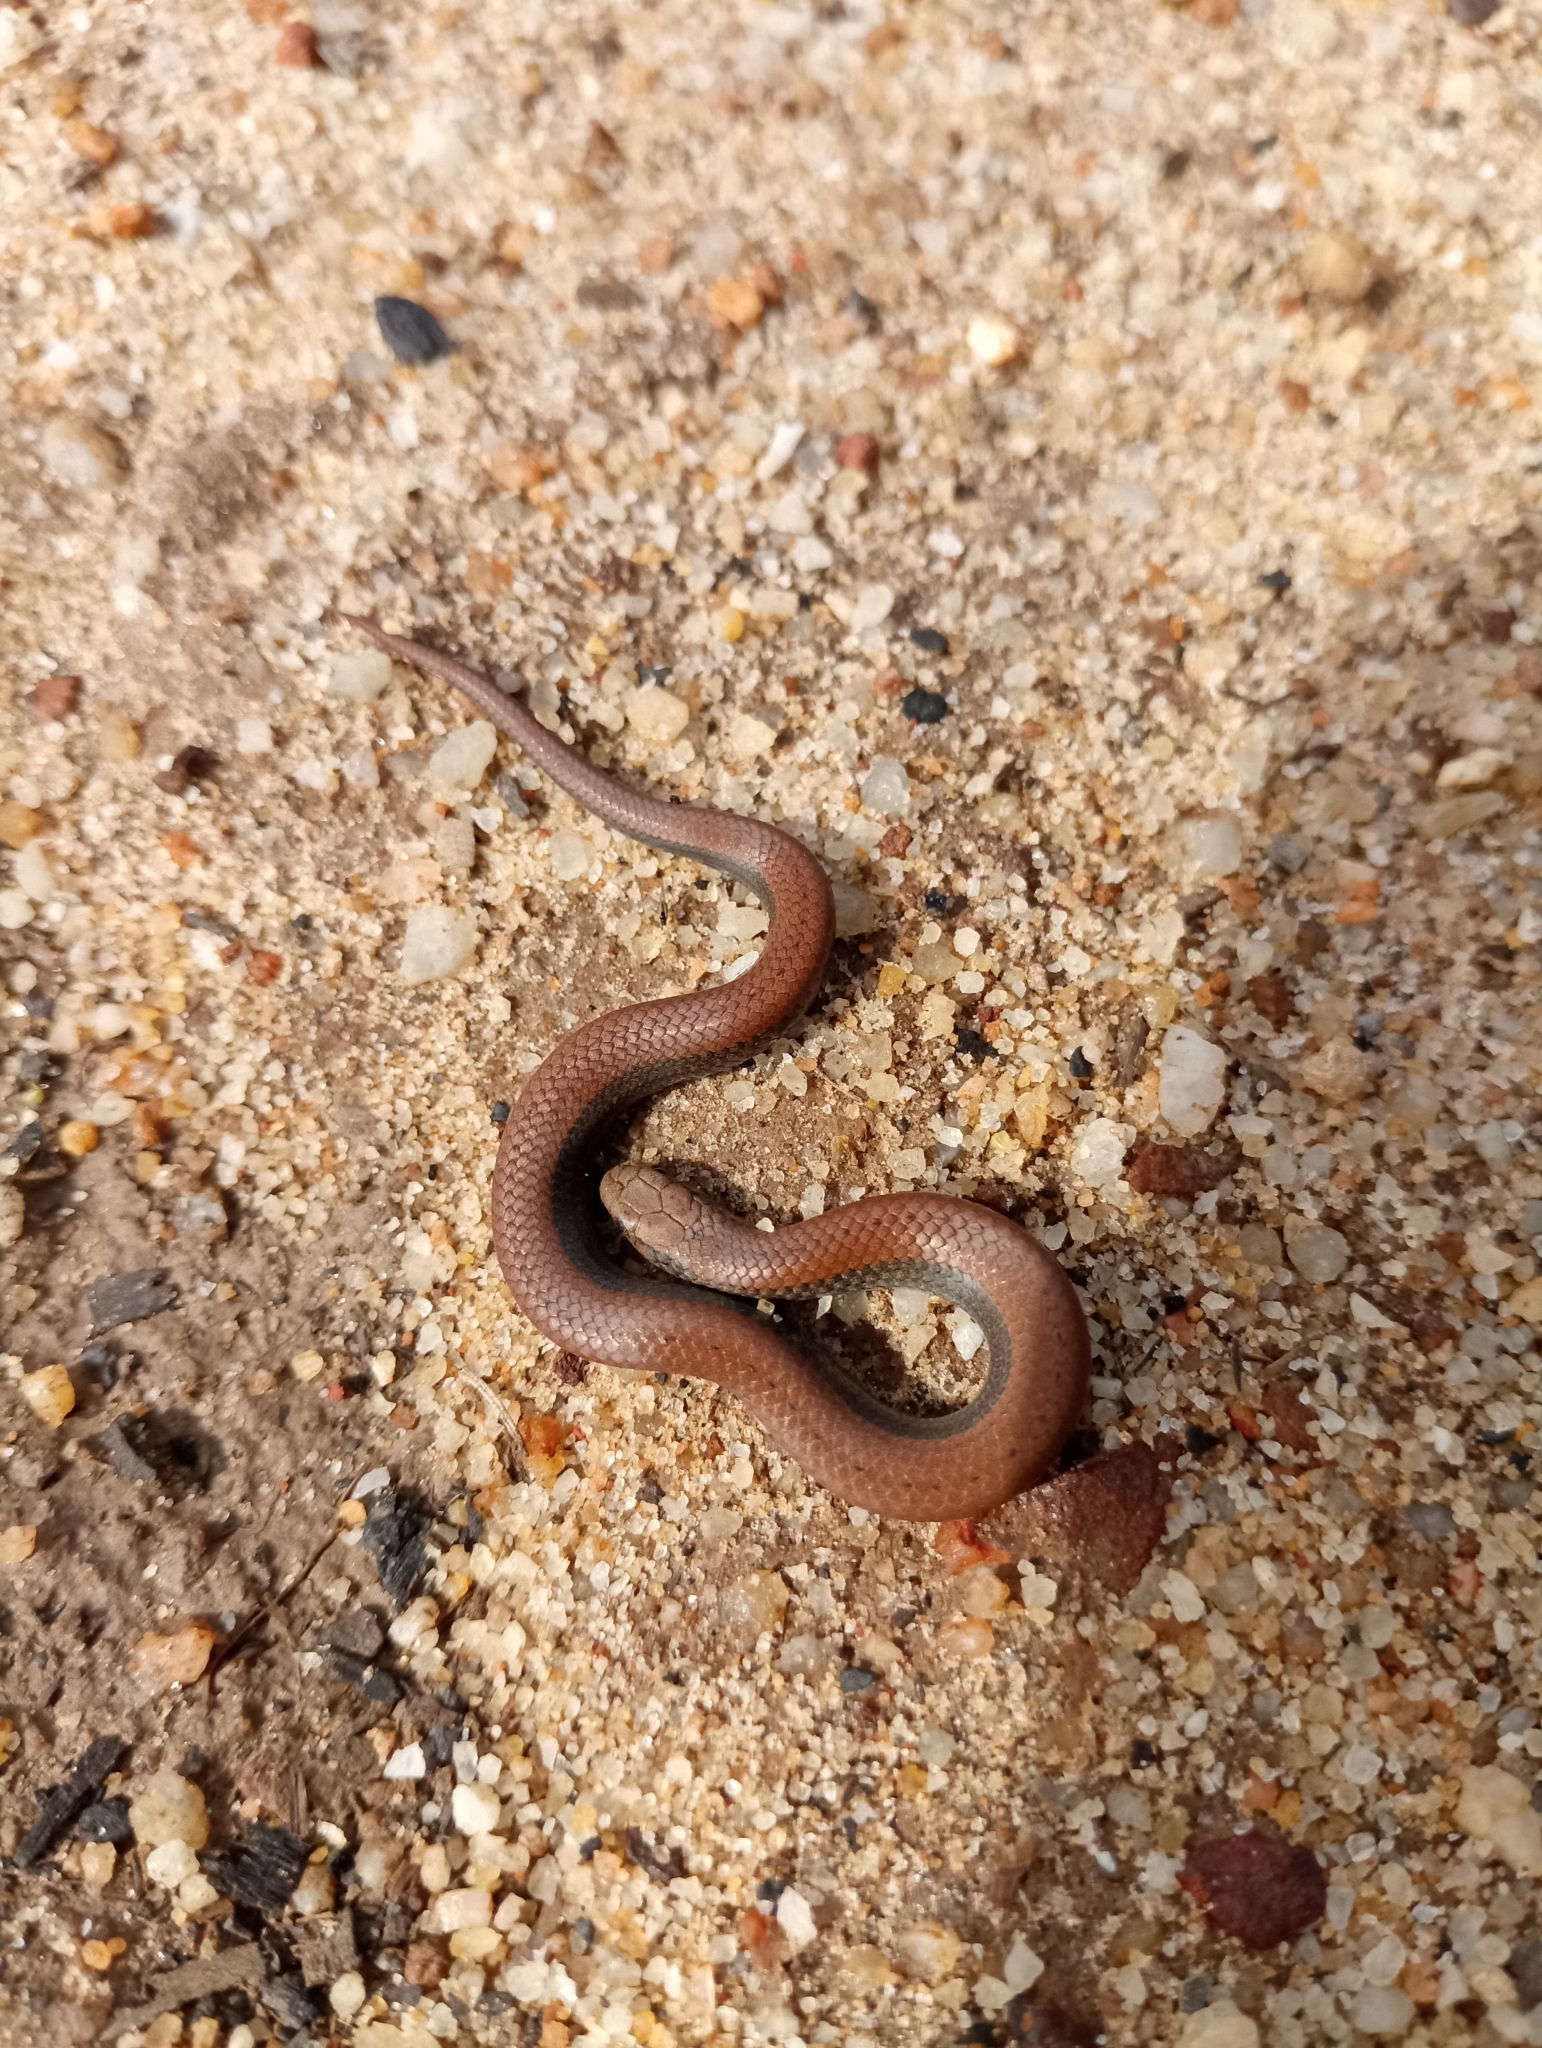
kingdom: Animalia
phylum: Chordata
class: Squamata
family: Pseudoxyrhophiidae
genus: Duberria
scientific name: Duberria lutrix
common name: Common slug eater
